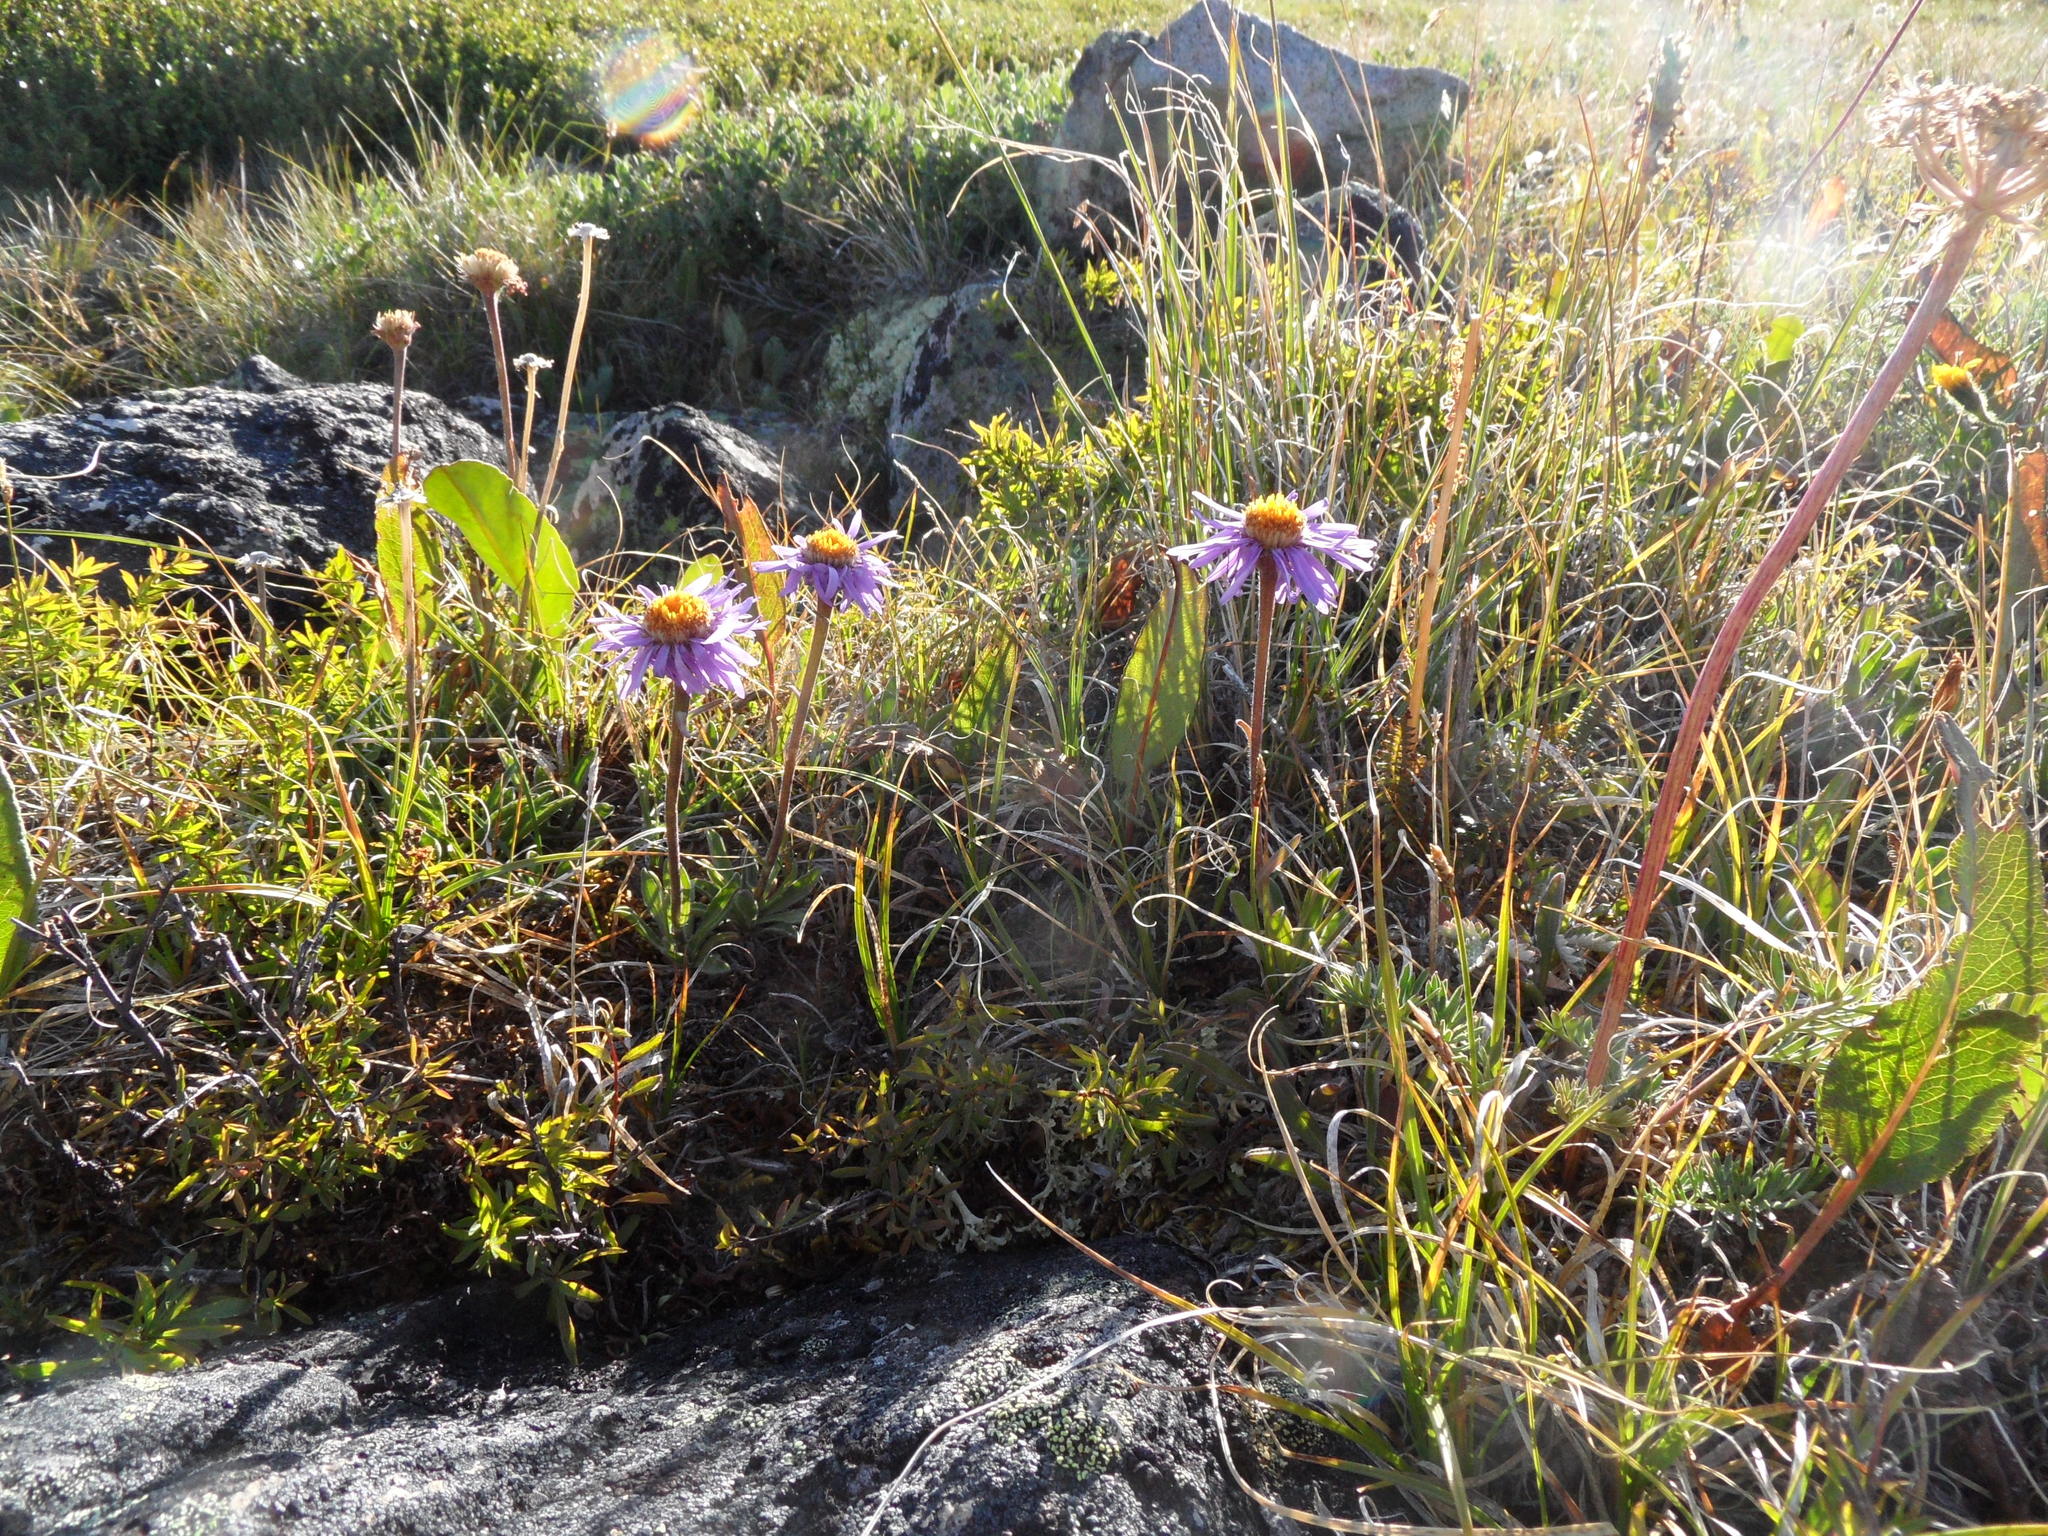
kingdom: Plantae
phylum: Tracheophyta
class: Magnoliopsida
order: Asterales
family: Asteraceae
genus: Aster
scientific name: Aster alpinus
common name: Alpine aster
